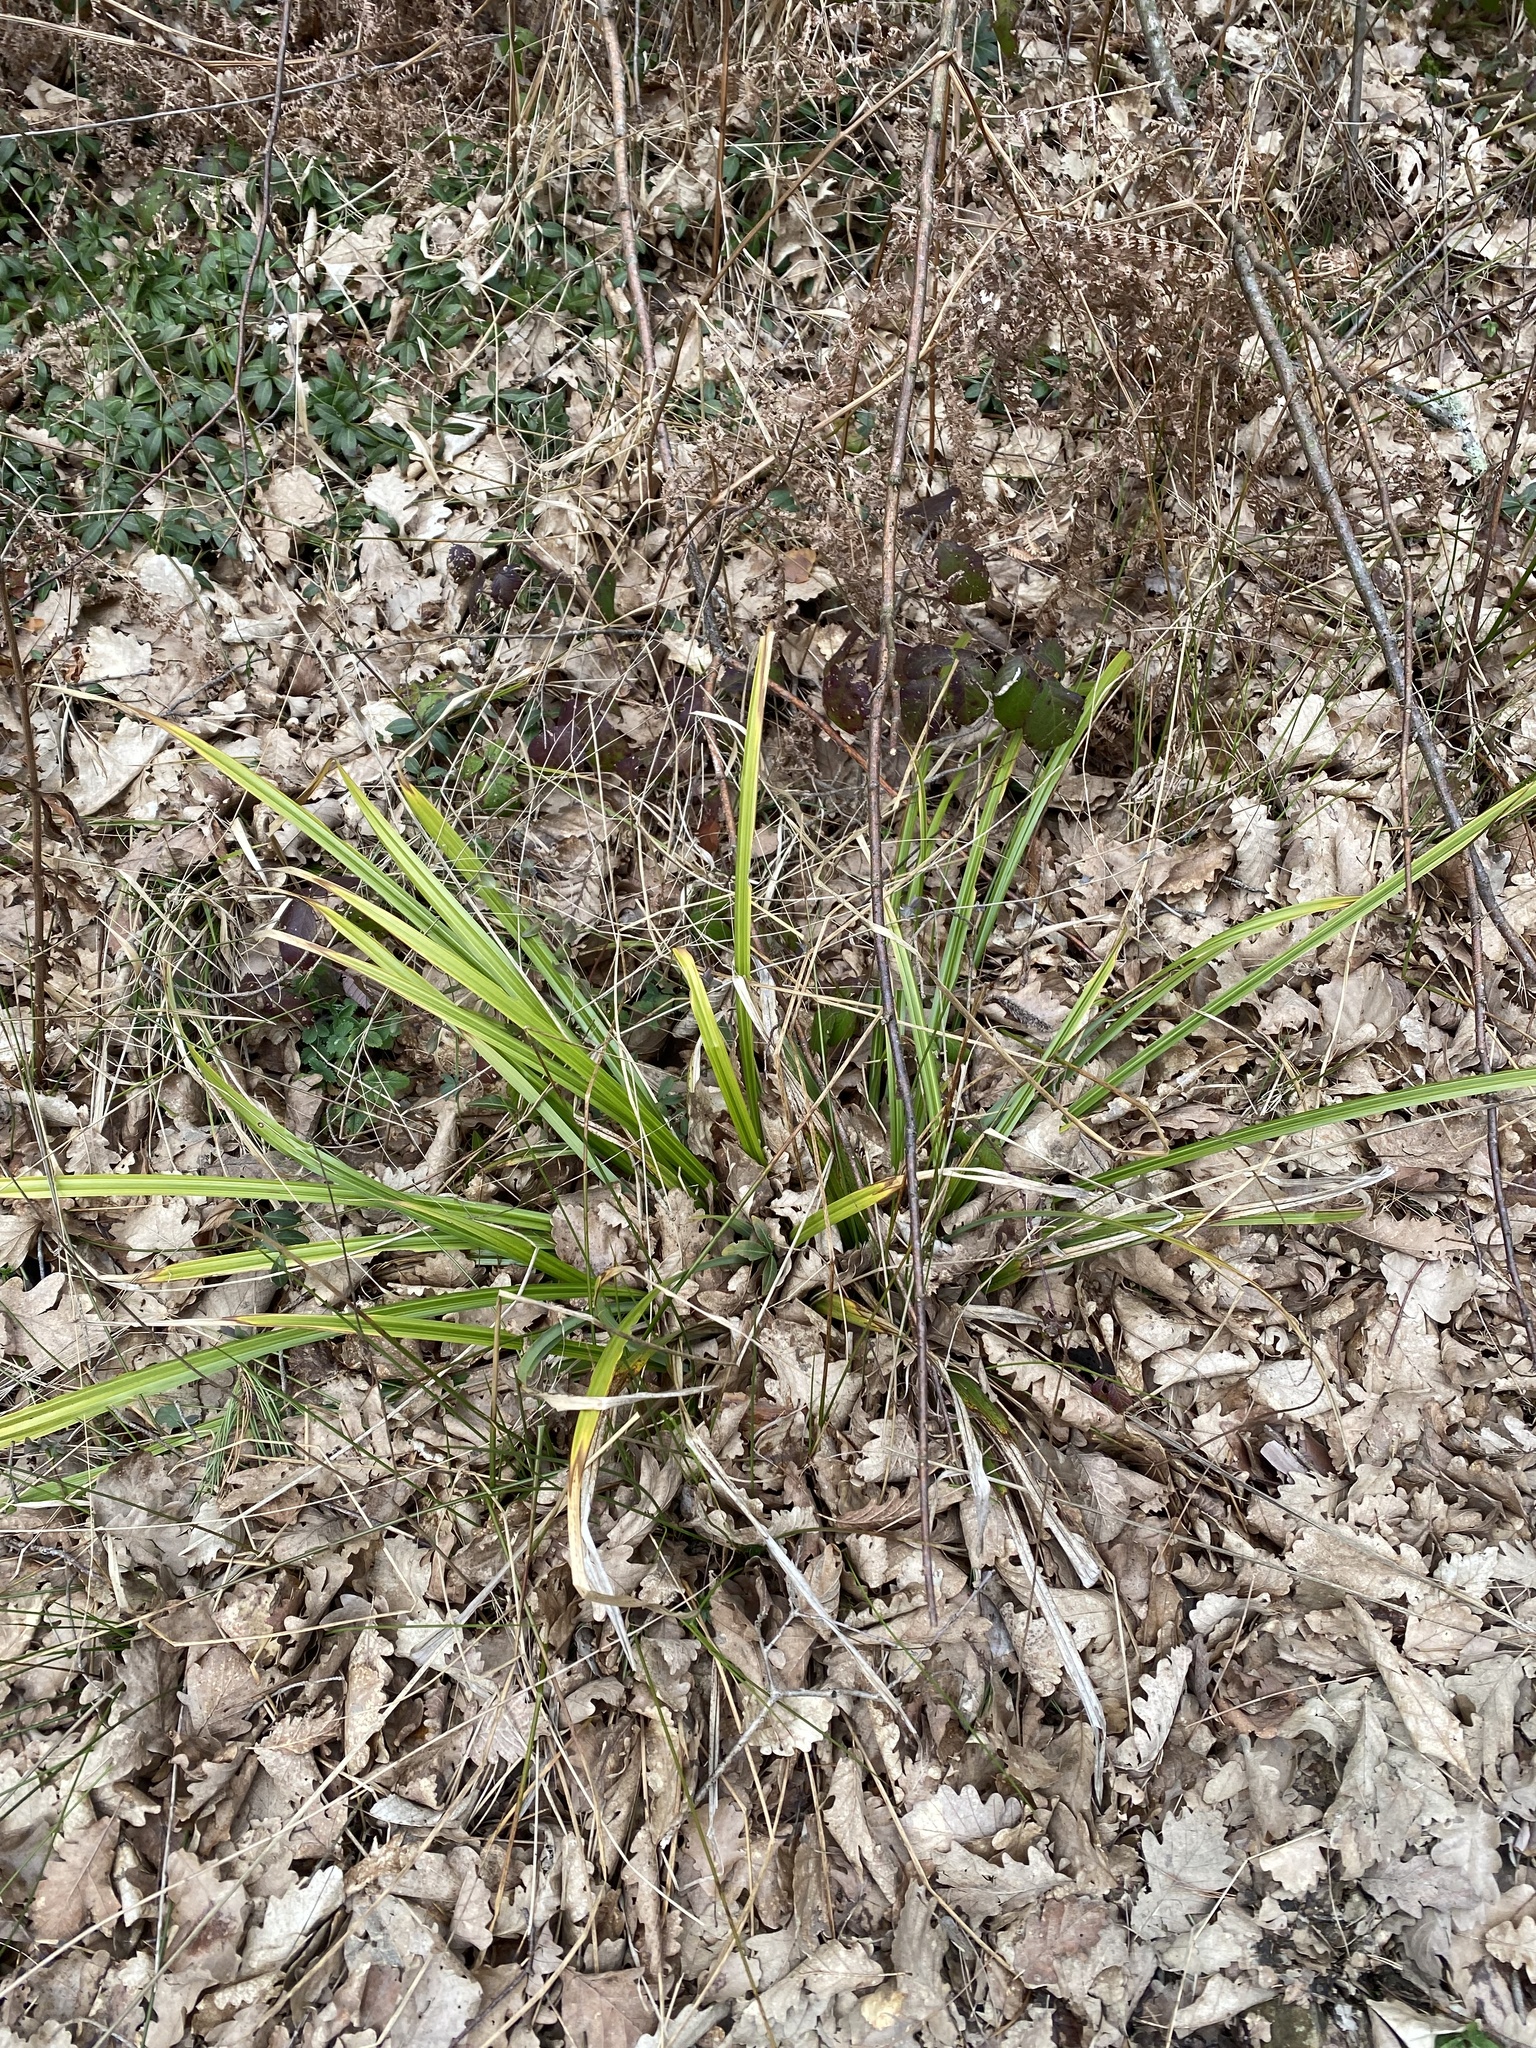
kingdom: Plantae
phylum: Tracheophyta
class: Liliopsida
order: Poales
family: Cyperaceae
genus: Carex
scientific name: Carex pendula
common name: Pendulous sedge
